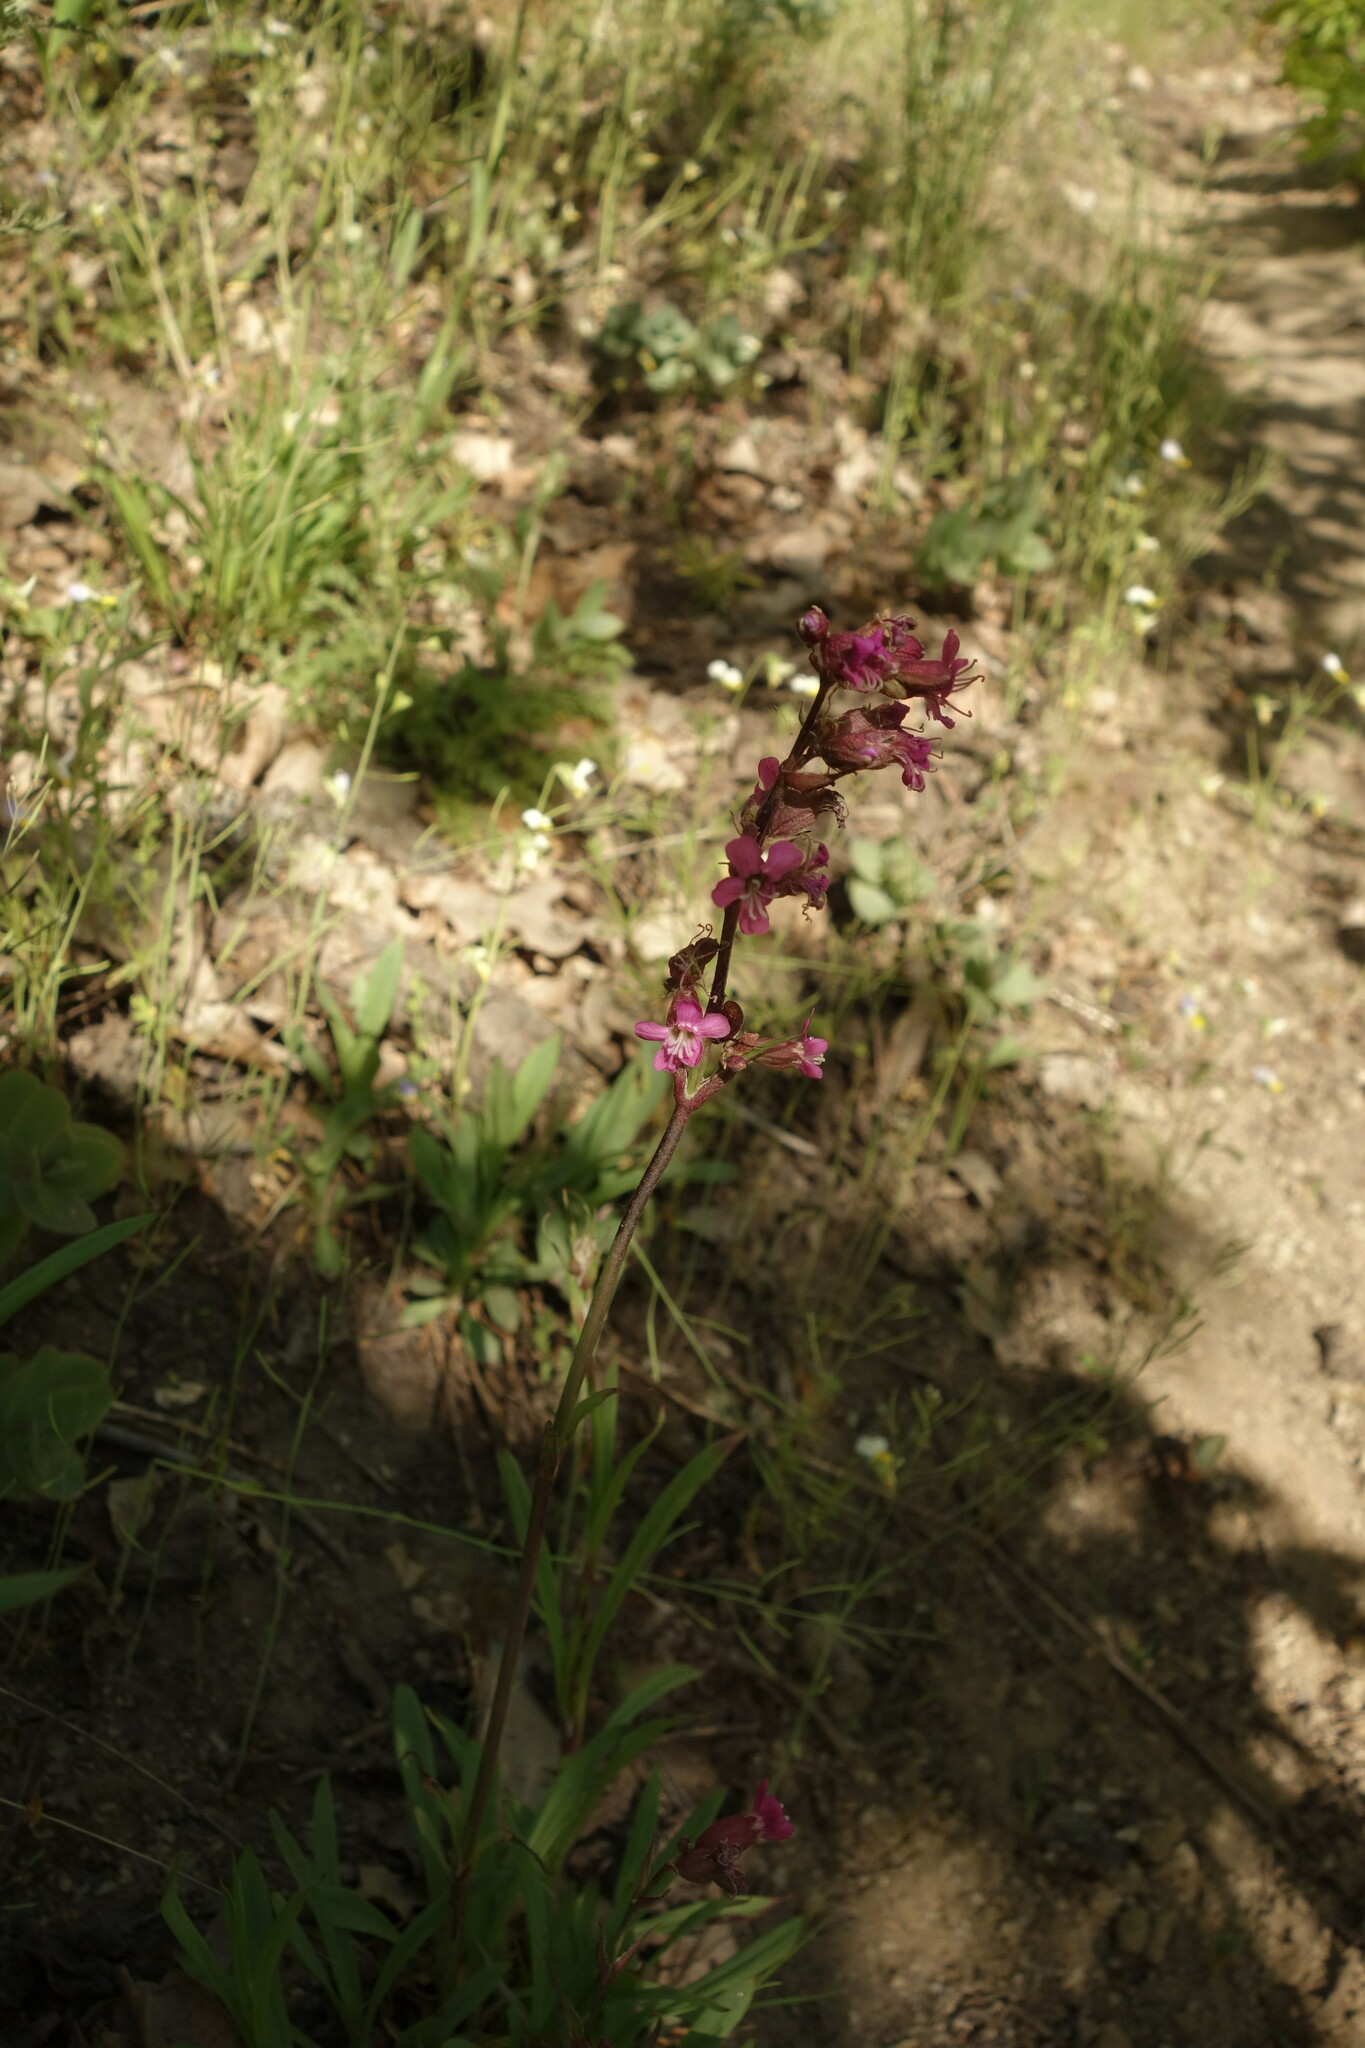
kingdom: Plantae
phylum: Tracheophyta
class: Magnoliopsida
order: Caryophyllales
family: Caryophyllaceae
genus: Viscaria
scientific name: Viscaria vulgaris
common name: Clammy campion
